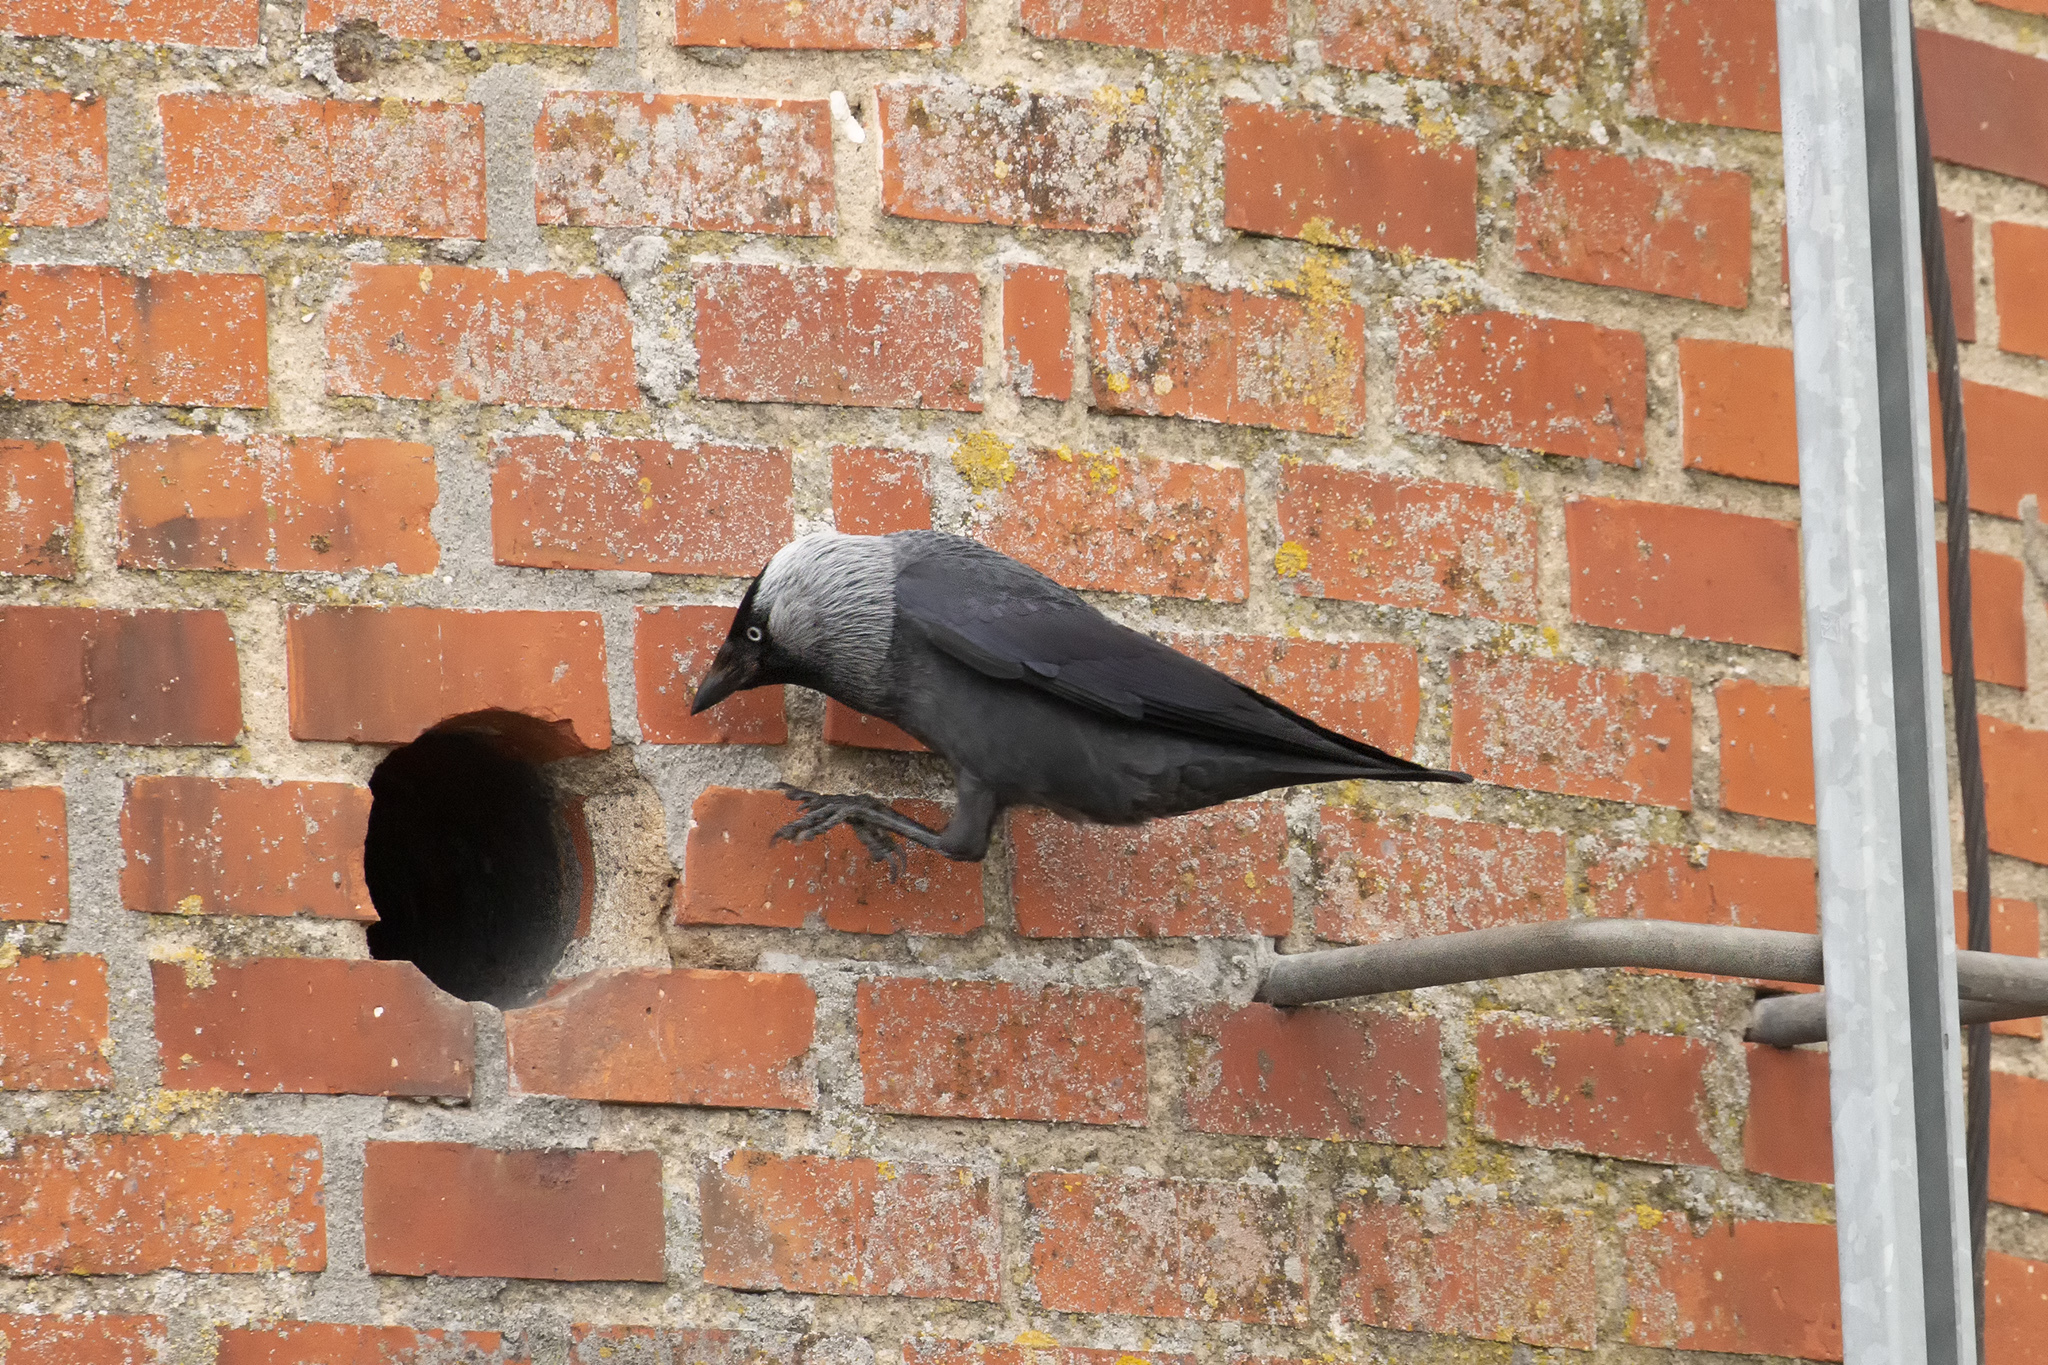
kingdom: Animalia
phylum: Chordata
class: Aves
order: Passeriformes
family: Corvidae
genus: Coloeus
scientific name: Coloeus monedula
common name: Western jackdaw
